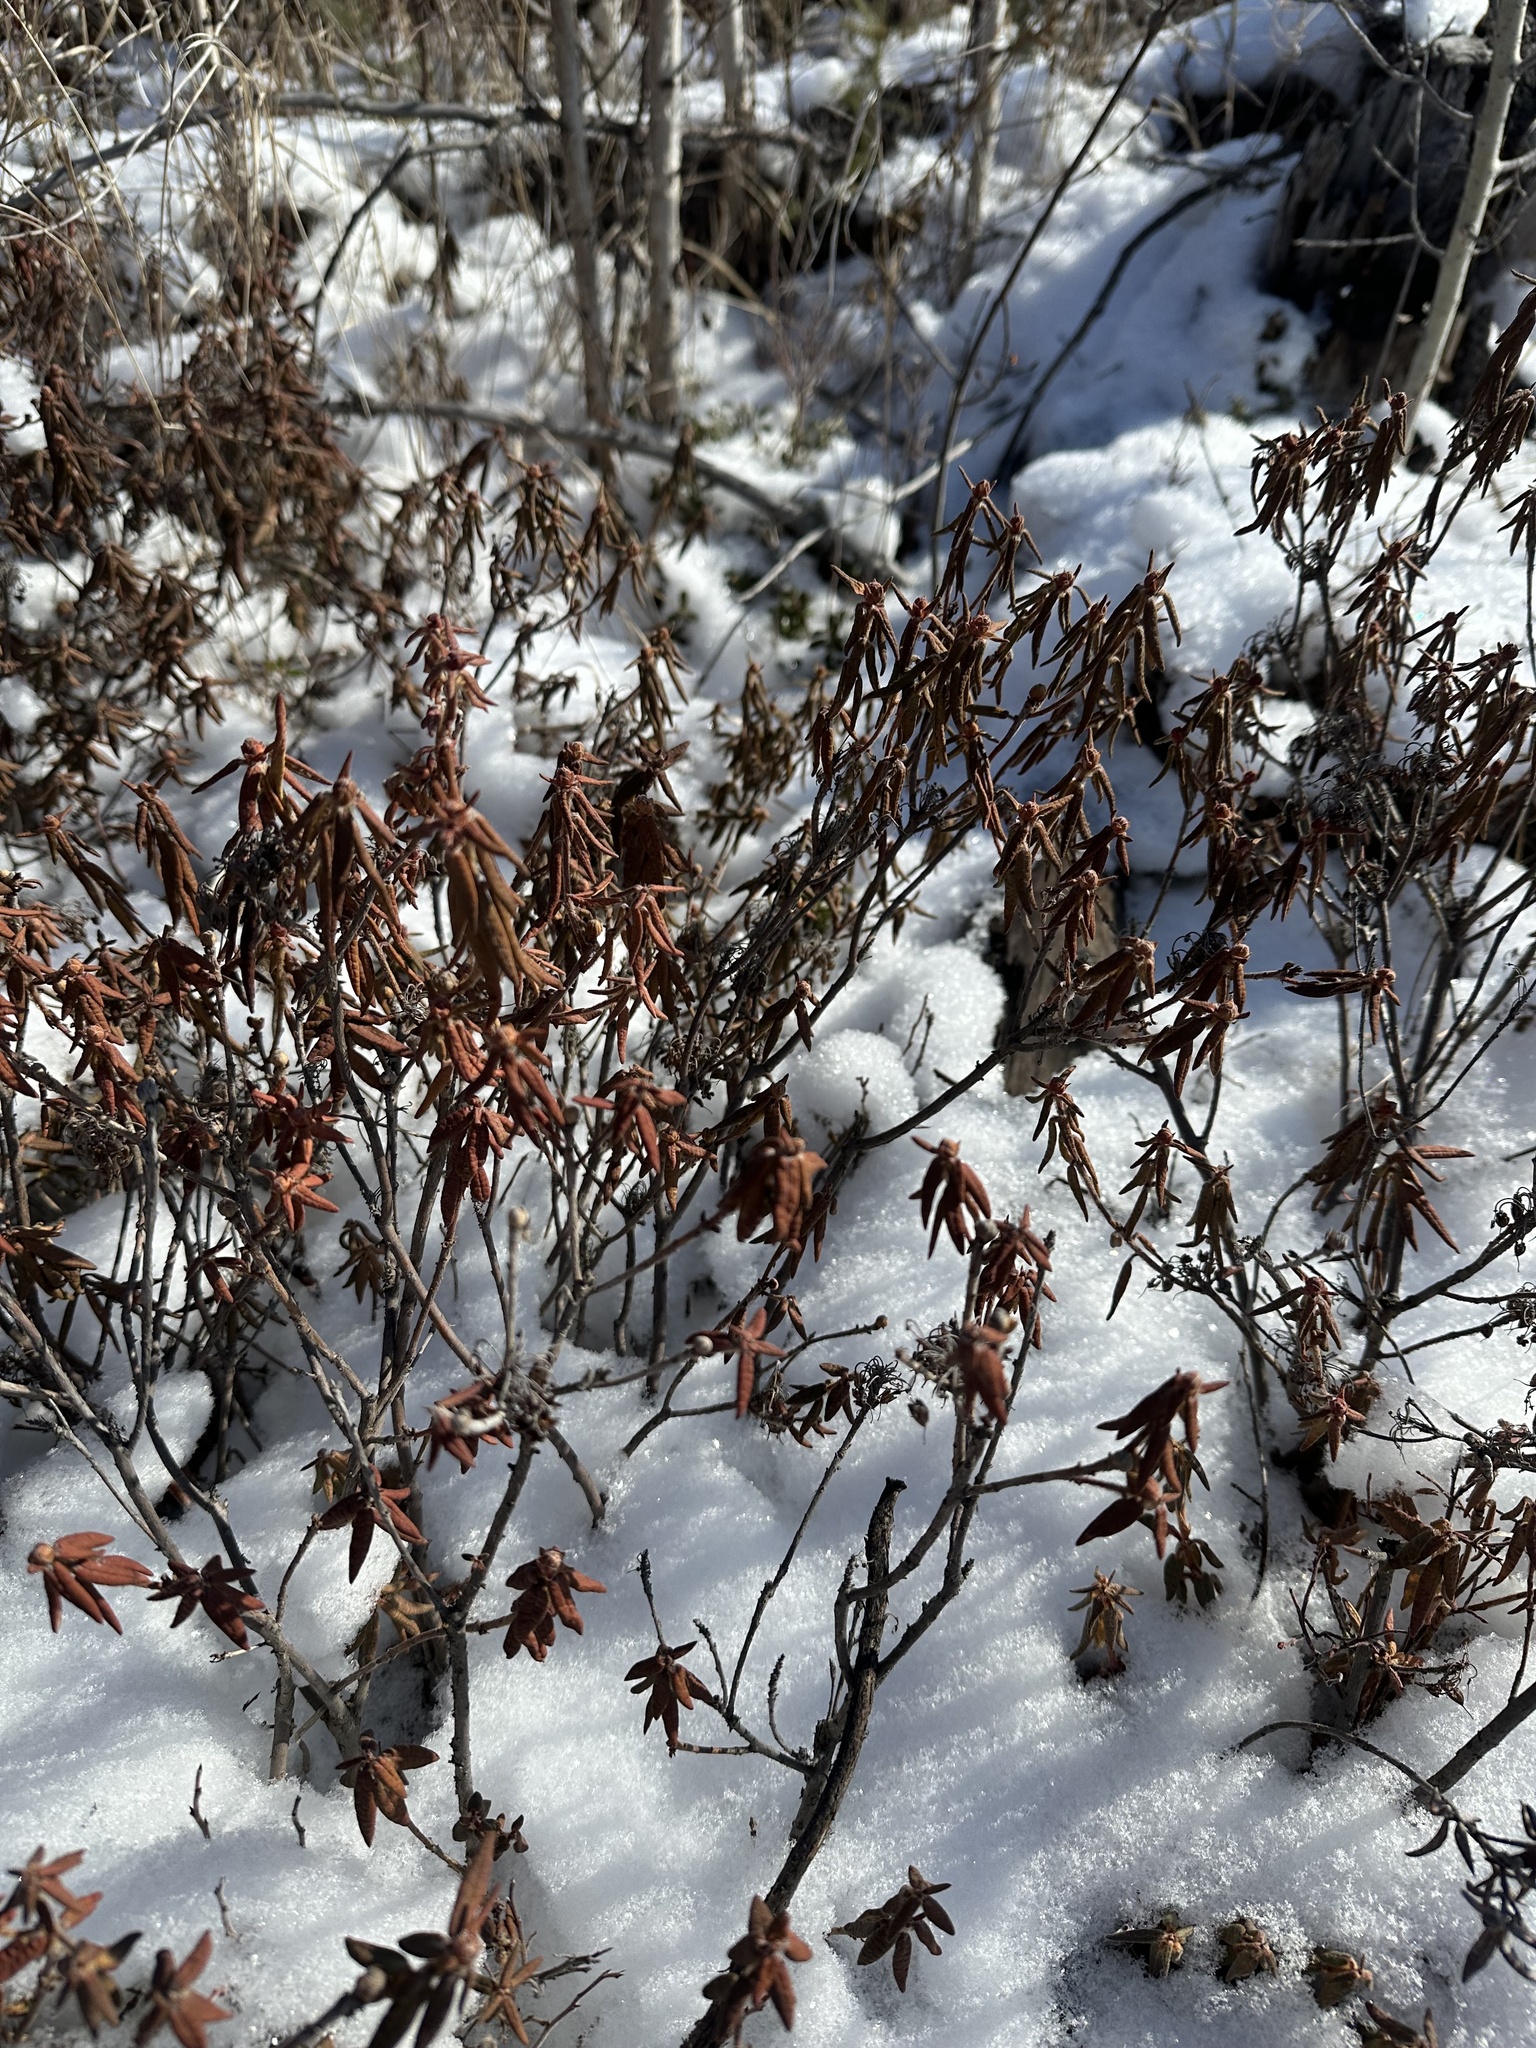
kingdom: Plantae
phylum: Tracheophyta
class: Magnoliopsida
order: Ericales
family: Ericaceae
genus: Rhododendron
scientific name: Rhododendron groenlandicum
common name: Bog labrador tea
